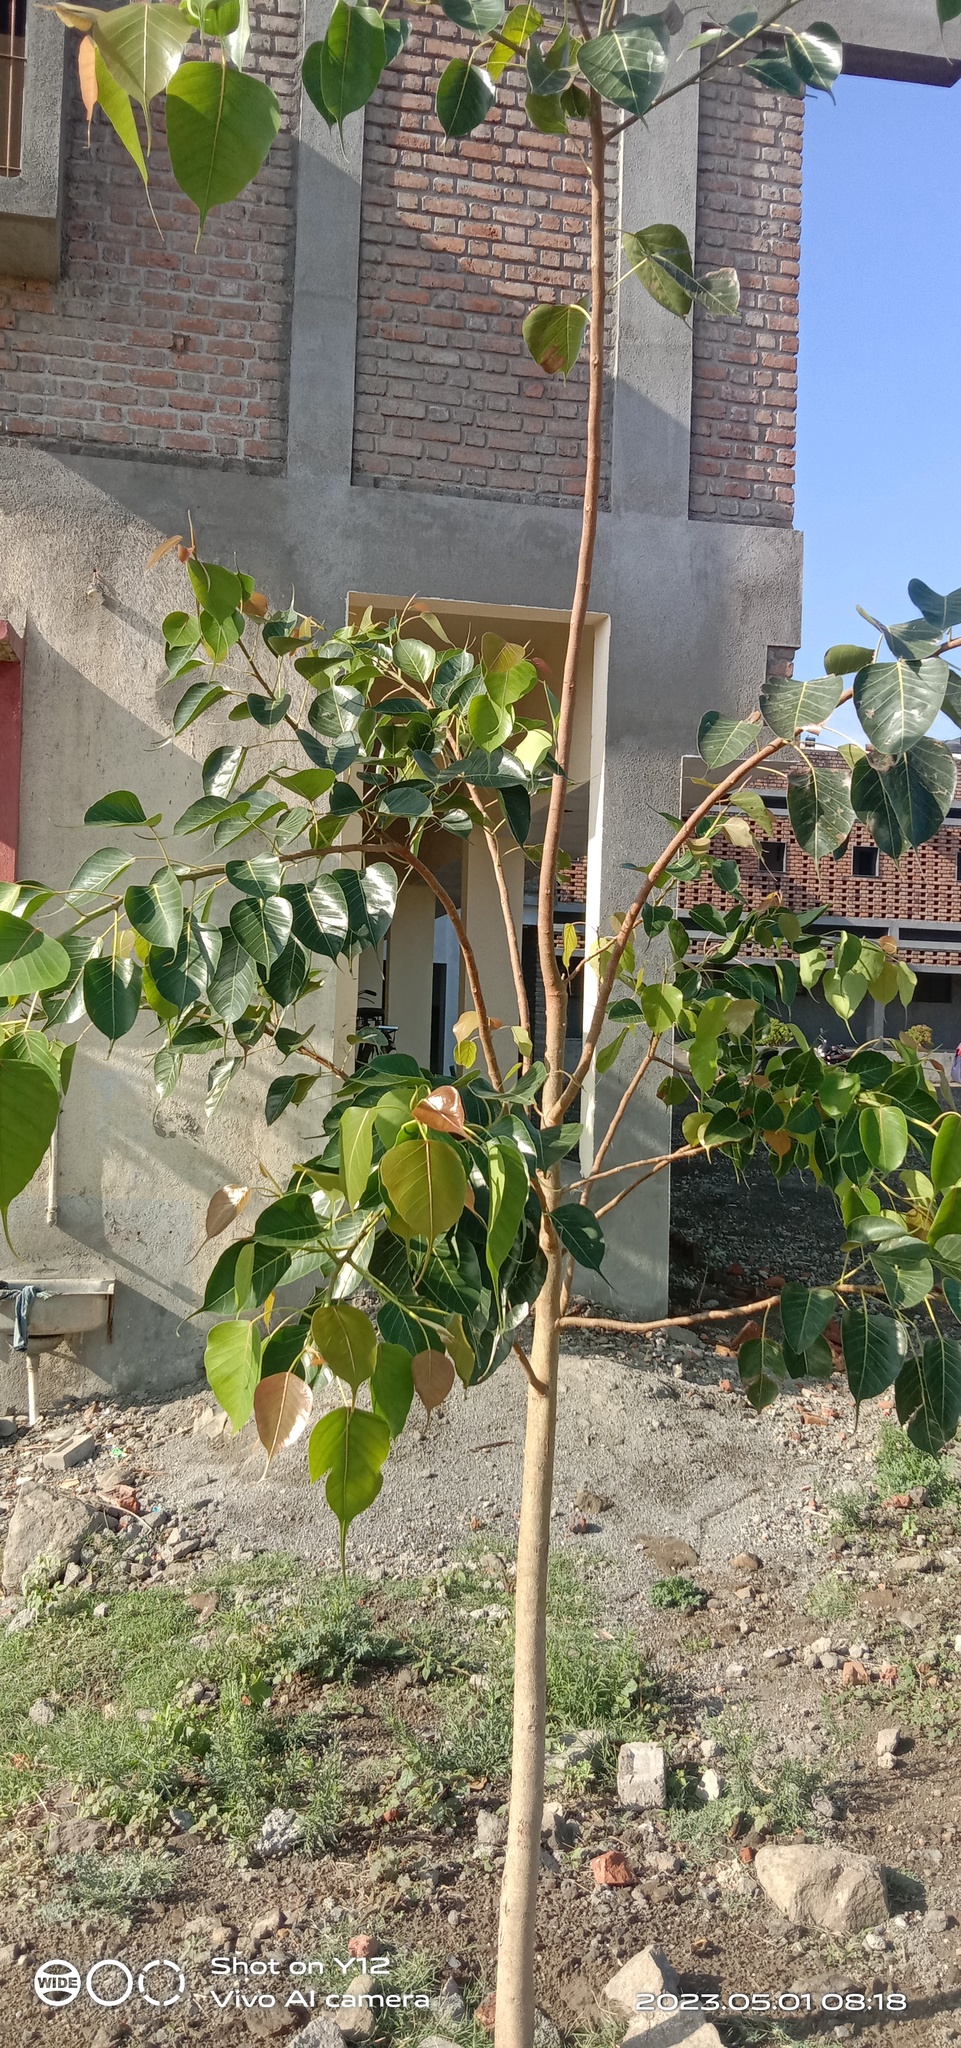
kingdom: Plantae
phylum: Tracheophyta
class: Magnoliopsida
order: Rosales
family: Moraceae
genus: Ficus
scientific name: Ficus religiosa
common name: Bodhi tree
